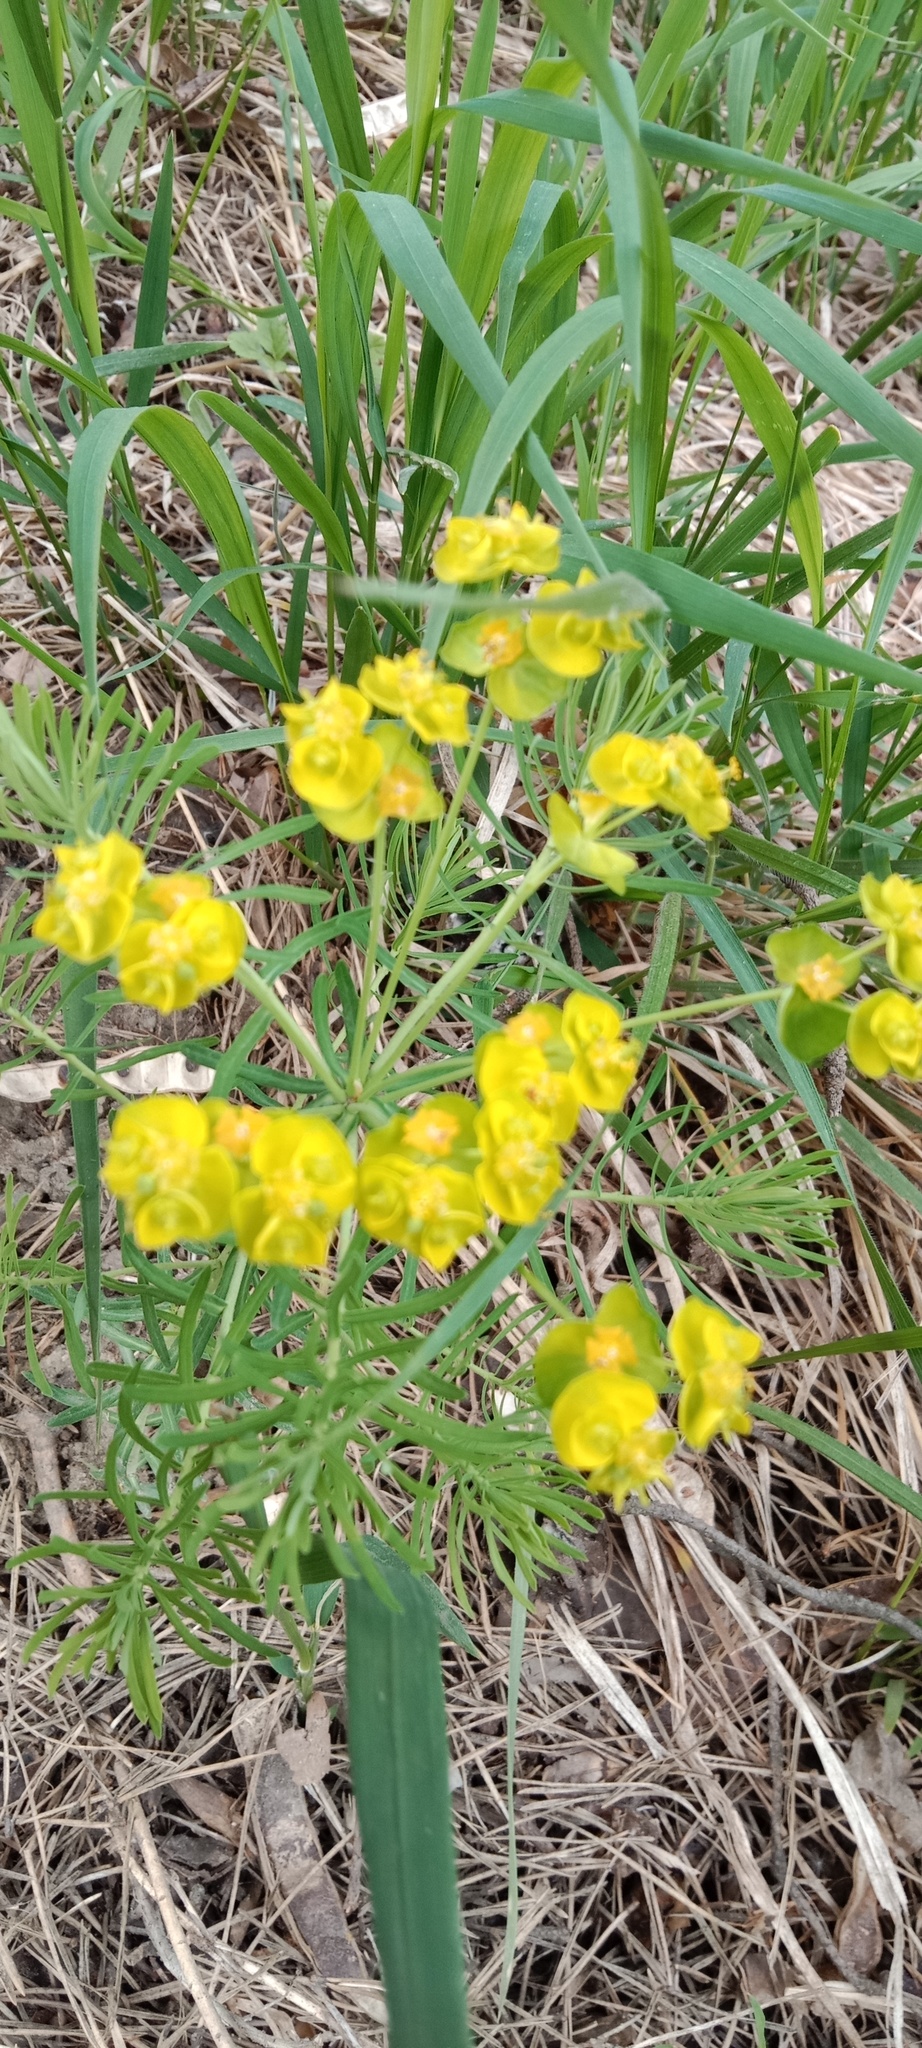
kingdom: Plantae
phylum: Tracheophyta
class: Magnoliopsida
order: Malpighiales
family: Euphorbiaceae
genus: Euphorbia
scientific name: Euphorbia cyparissias
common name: Cypress spurge
